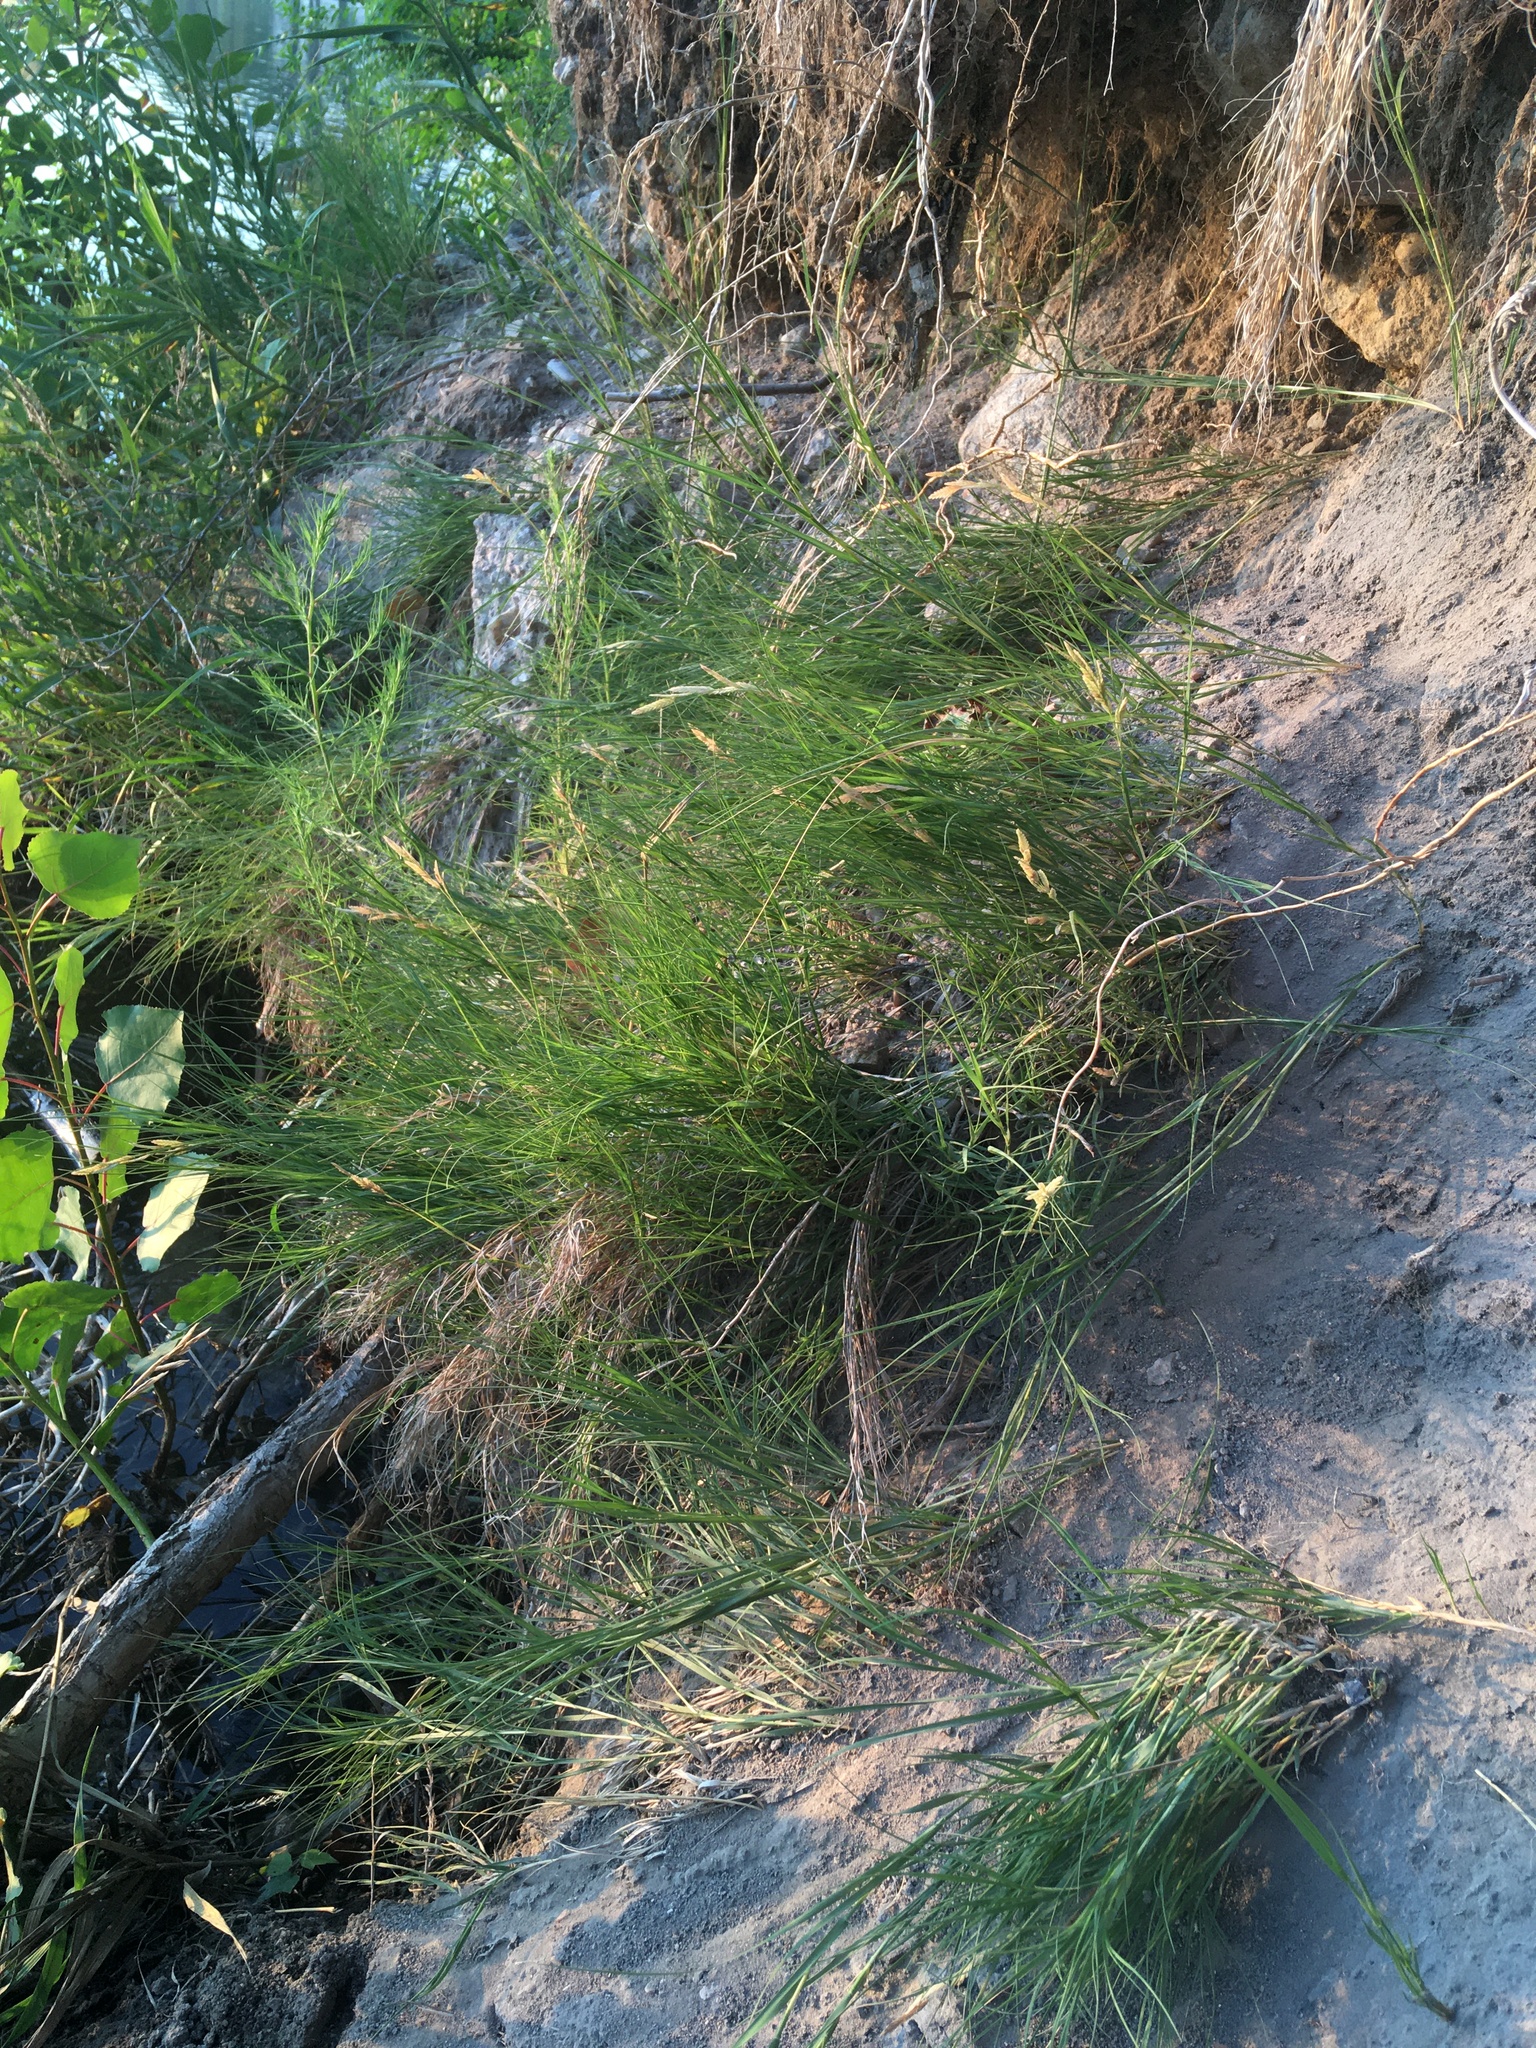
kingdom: Plantae
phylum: Tracheophyta
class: Liliopsida
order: Poales
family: Poaceae
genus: Distichlis
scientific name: Distichlis spicata
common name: Saltgrass
